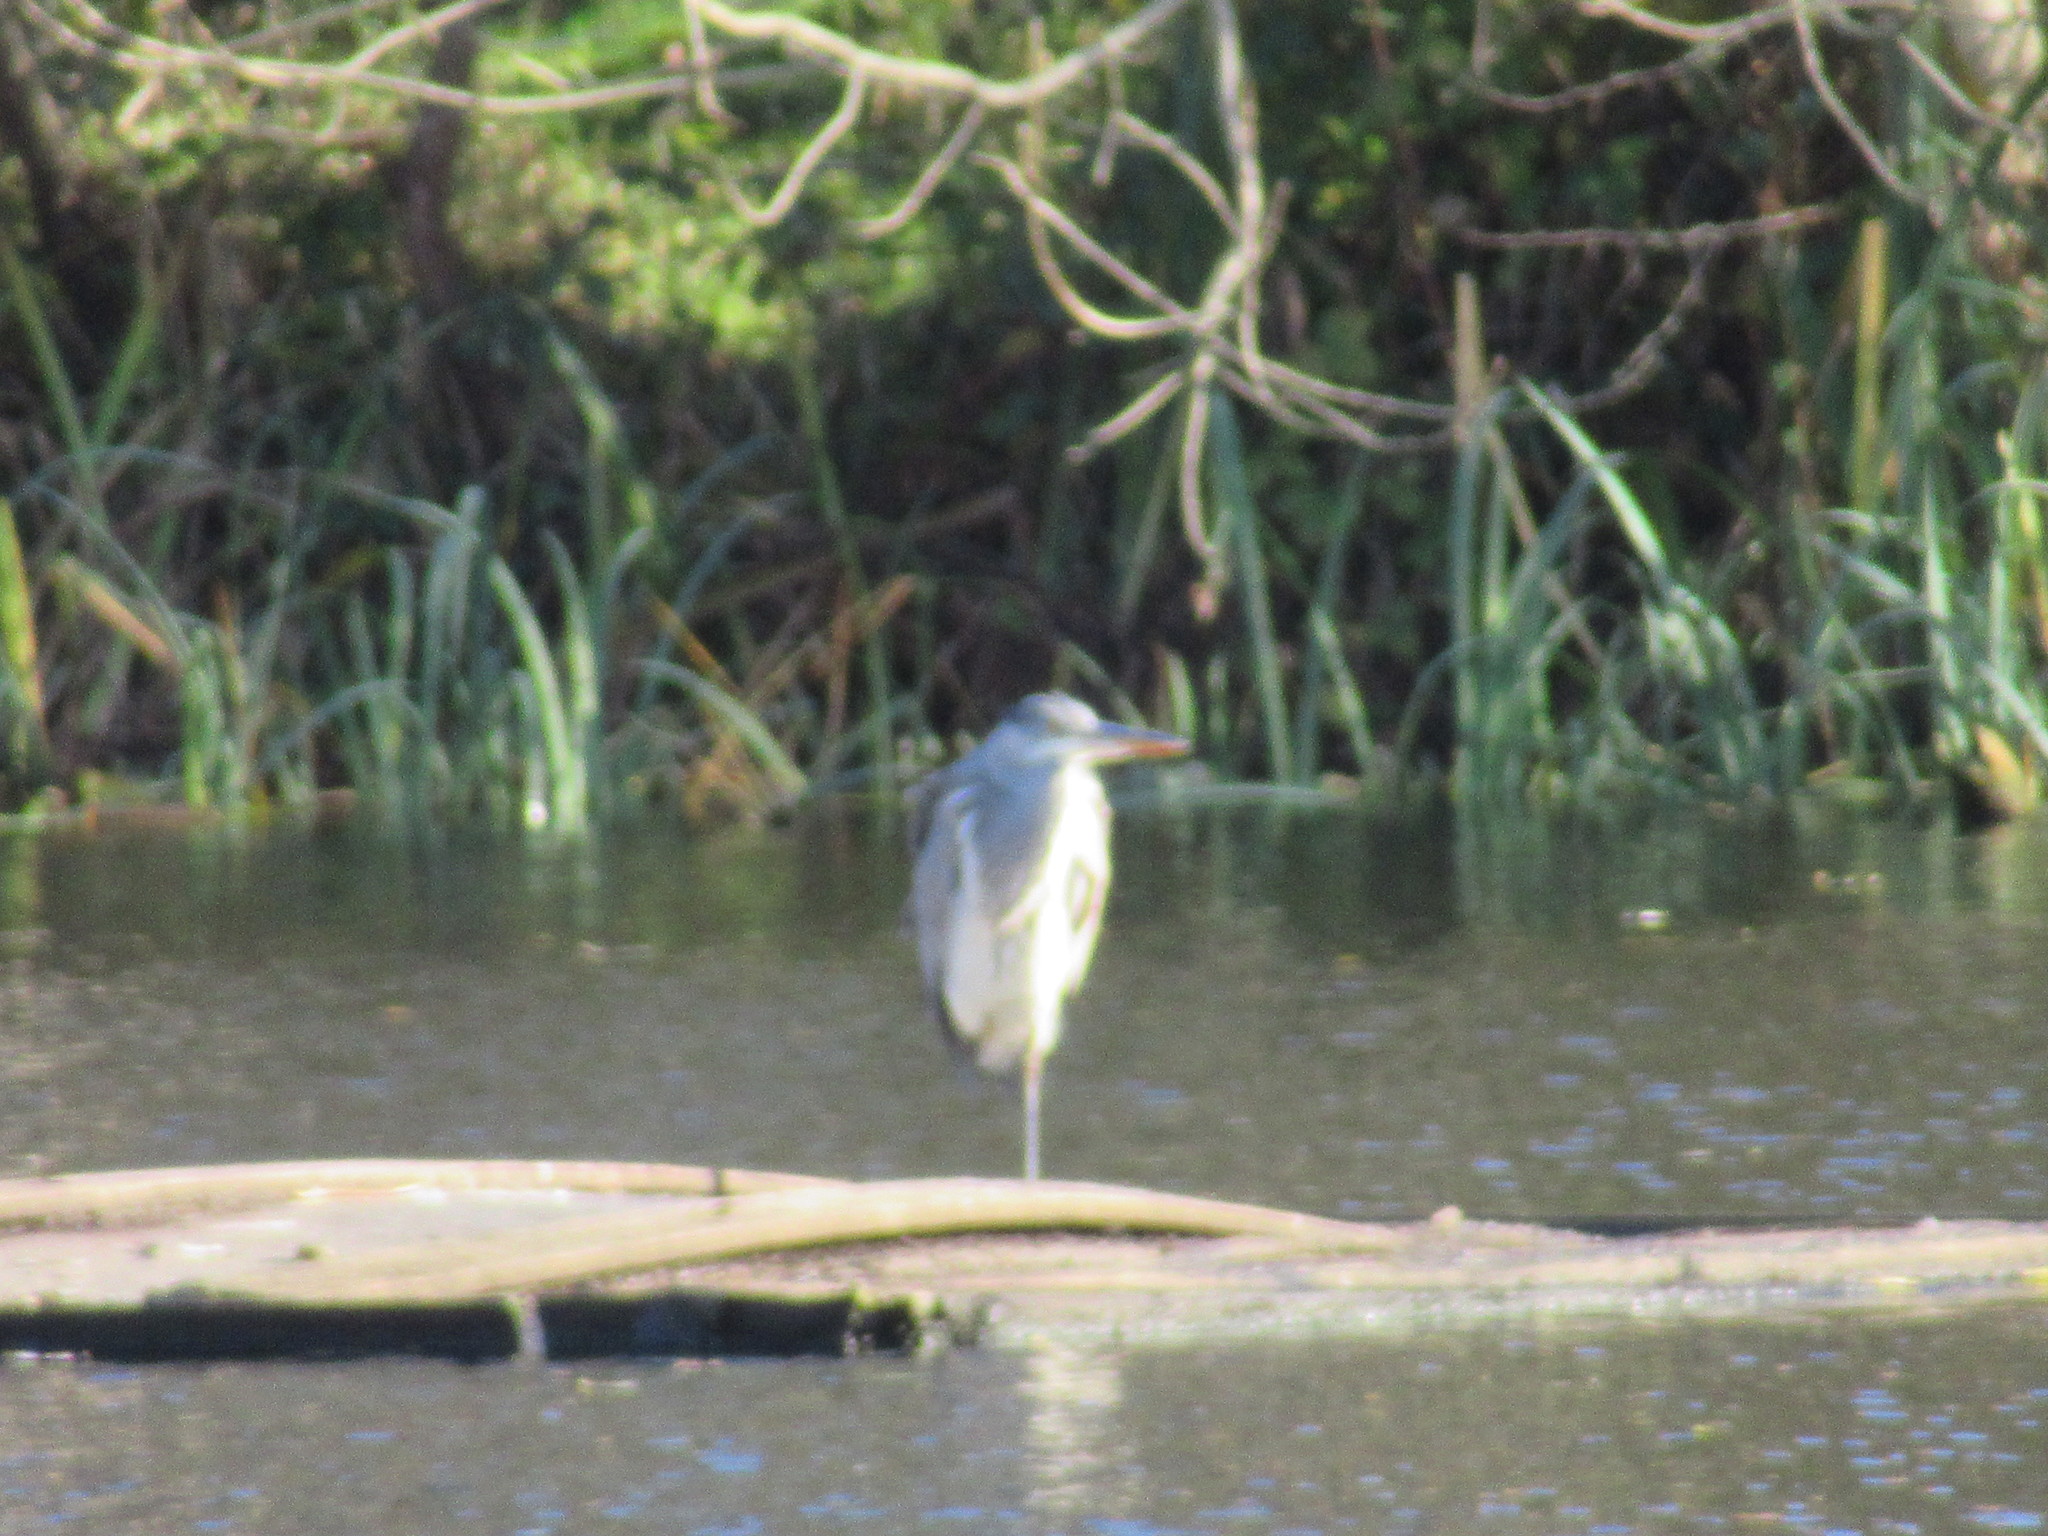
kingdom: Animalia
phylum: Chordata
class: Aves
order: Pelecaniformes
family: Ardeidae
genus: Ardea
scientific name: Ardea cinerea
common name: Grey heron
